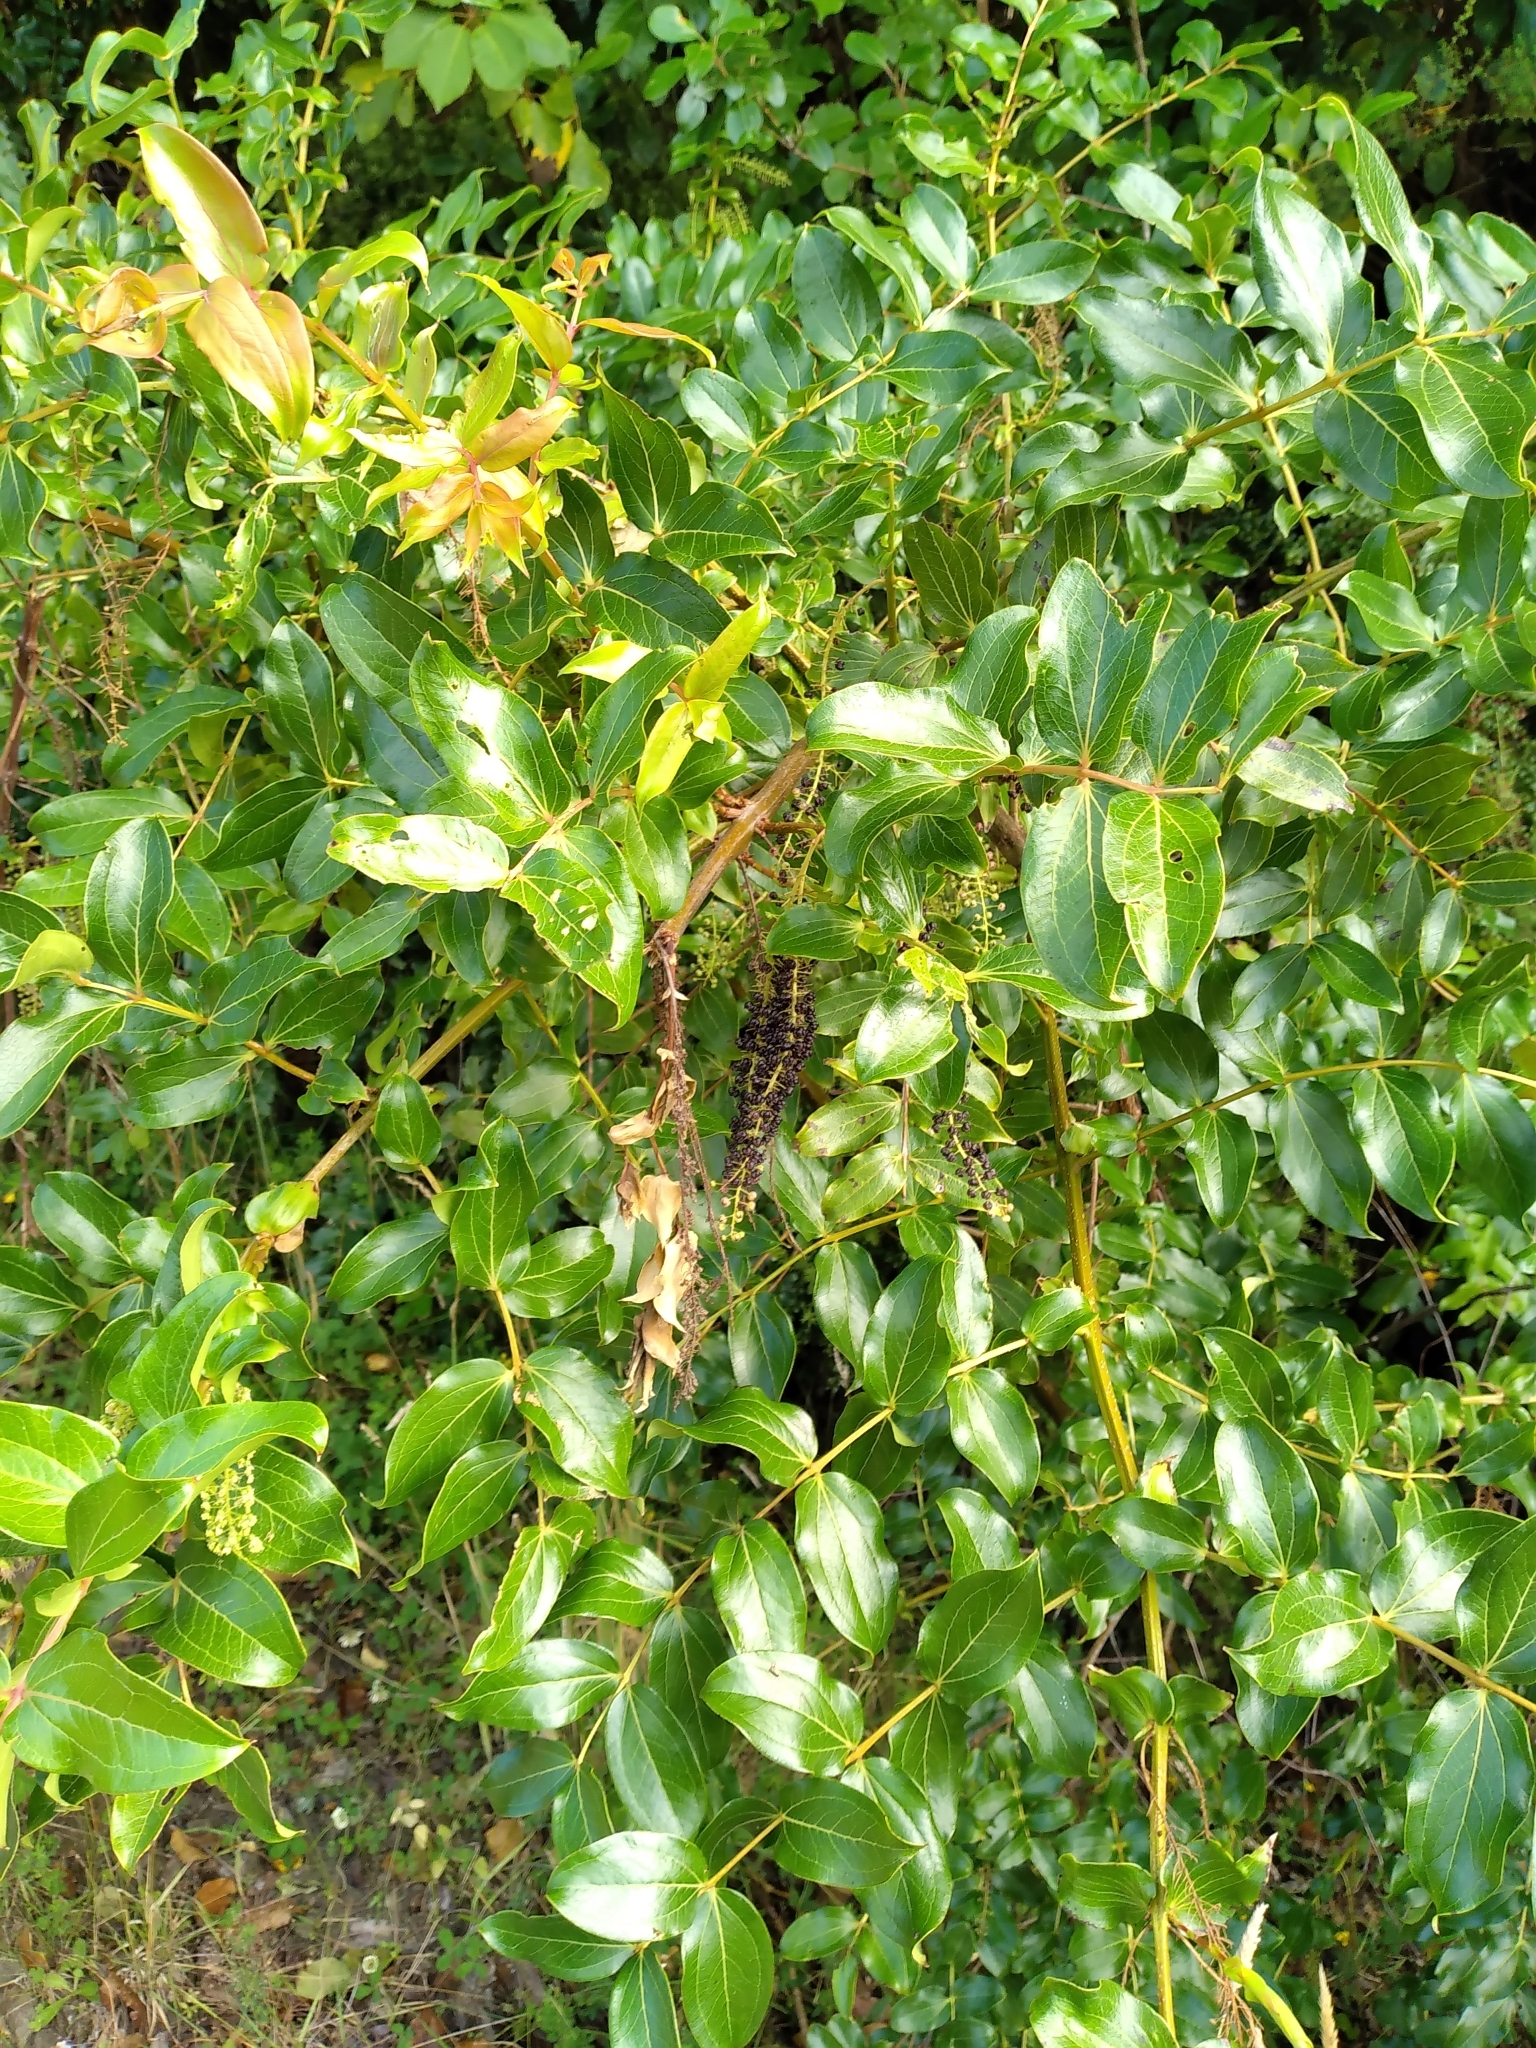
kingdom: Plantae
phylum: Tracheophyta
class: Magnoliopsida
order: Cucurbitales
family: Coriariaceae
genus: Coriaria
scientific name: Coriaria arborea
